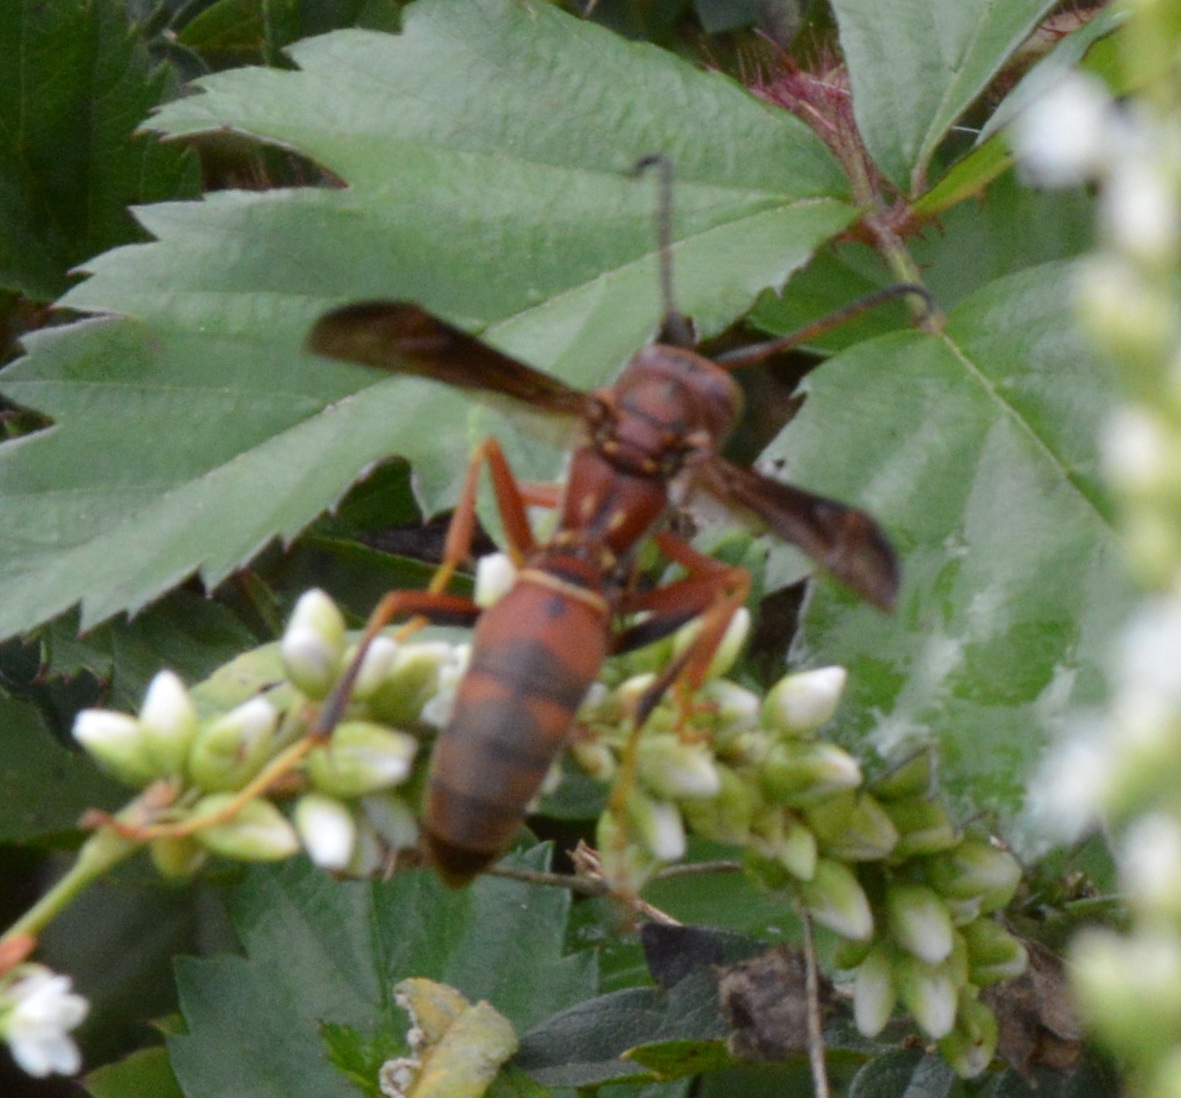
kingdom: Animalia
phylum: Arthropoda
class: Insecta
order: Hymenoptera
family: Eumenidae
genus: Polistes
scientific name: Polistes fuscatus
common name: Dark paper wasp
